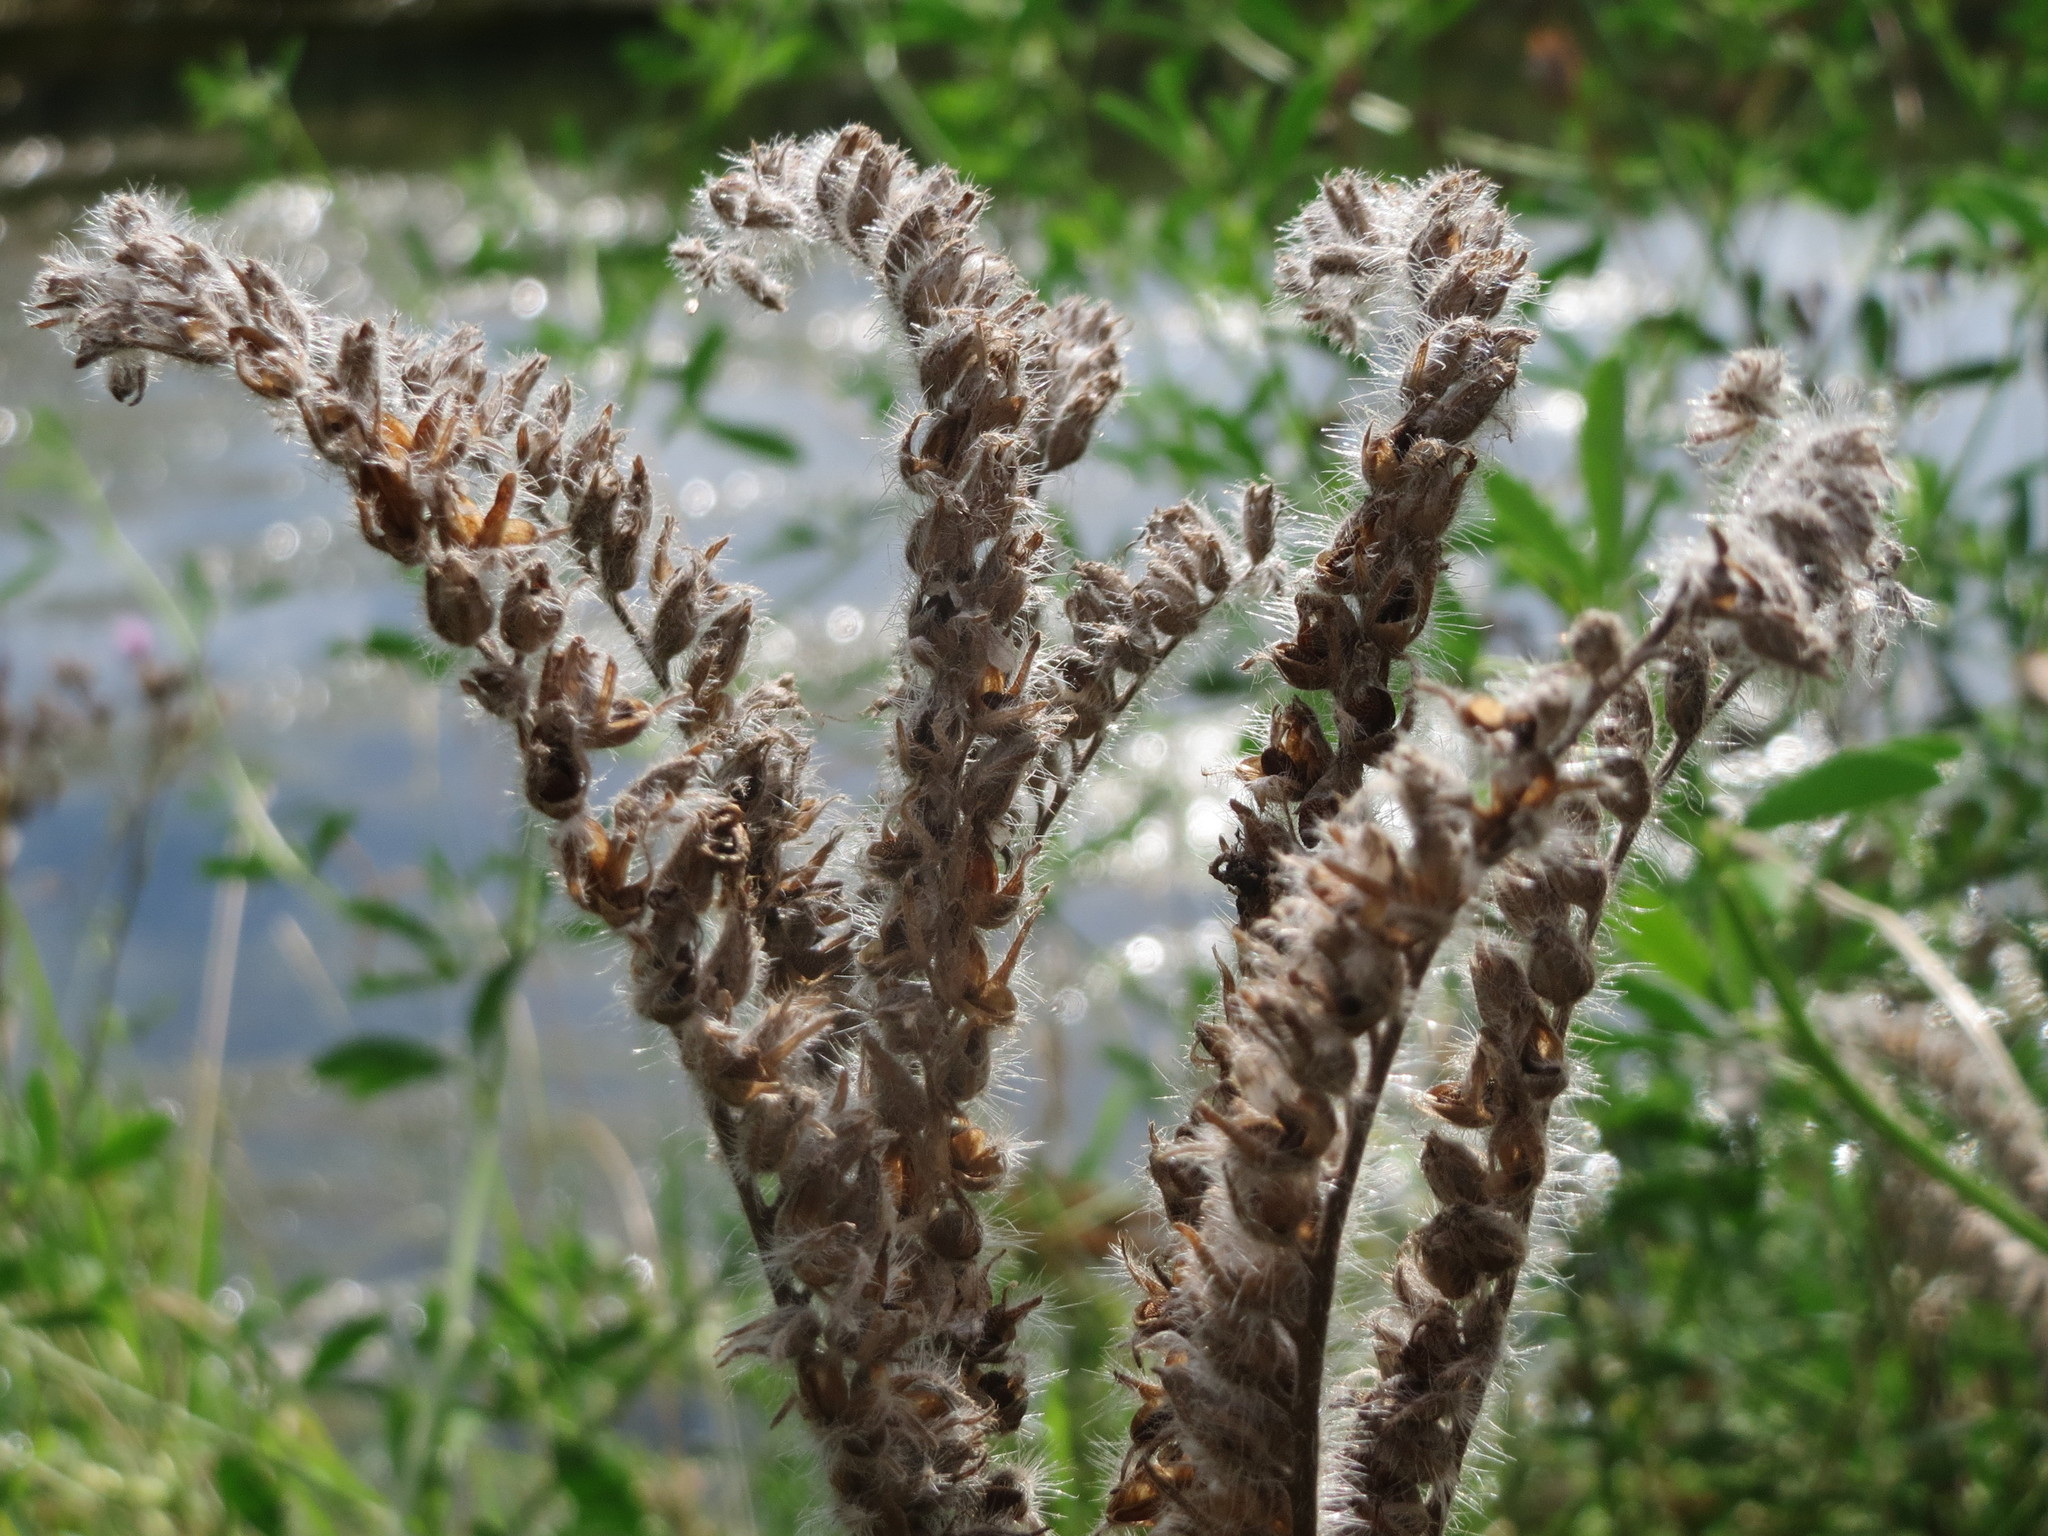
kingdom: Plantae
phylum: Tracheophyta
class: Magnoliopsida
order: Boraginales
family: Hydrophyllaceae
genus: Phacelia
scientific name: Phacelia tanacetifolia
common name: Phacelia
